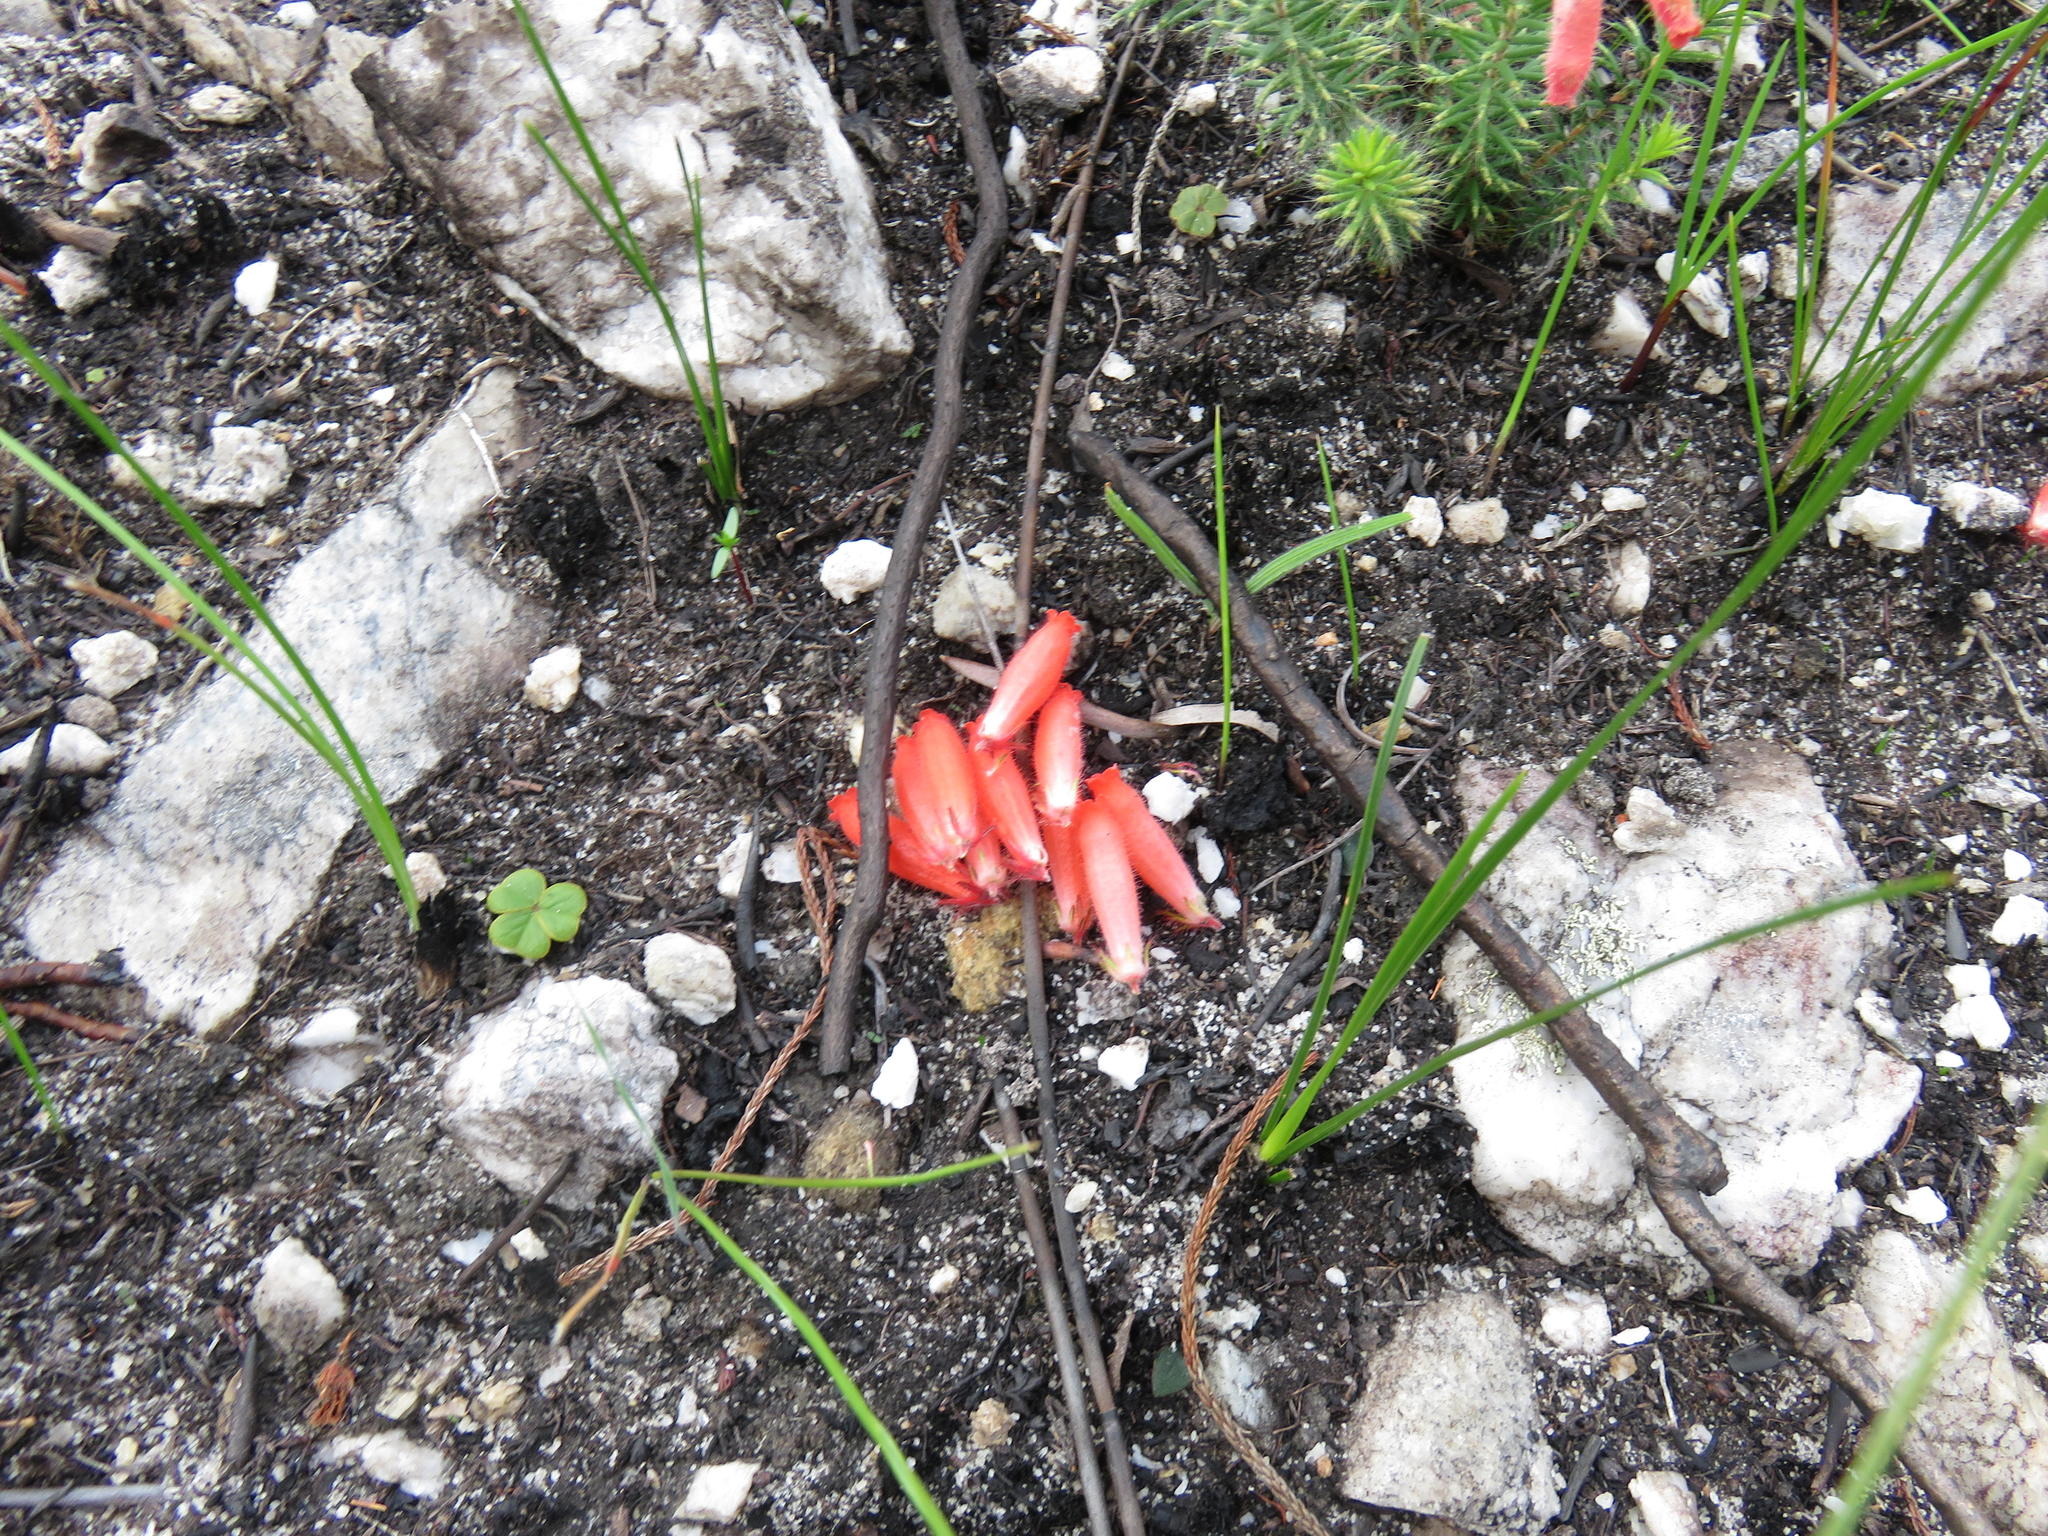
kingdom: Plantae
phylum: Tracheophyta
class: Magnoliopsida
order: Ericales
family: Ericaceae
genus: Erica
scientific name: Erica cerinthoides
